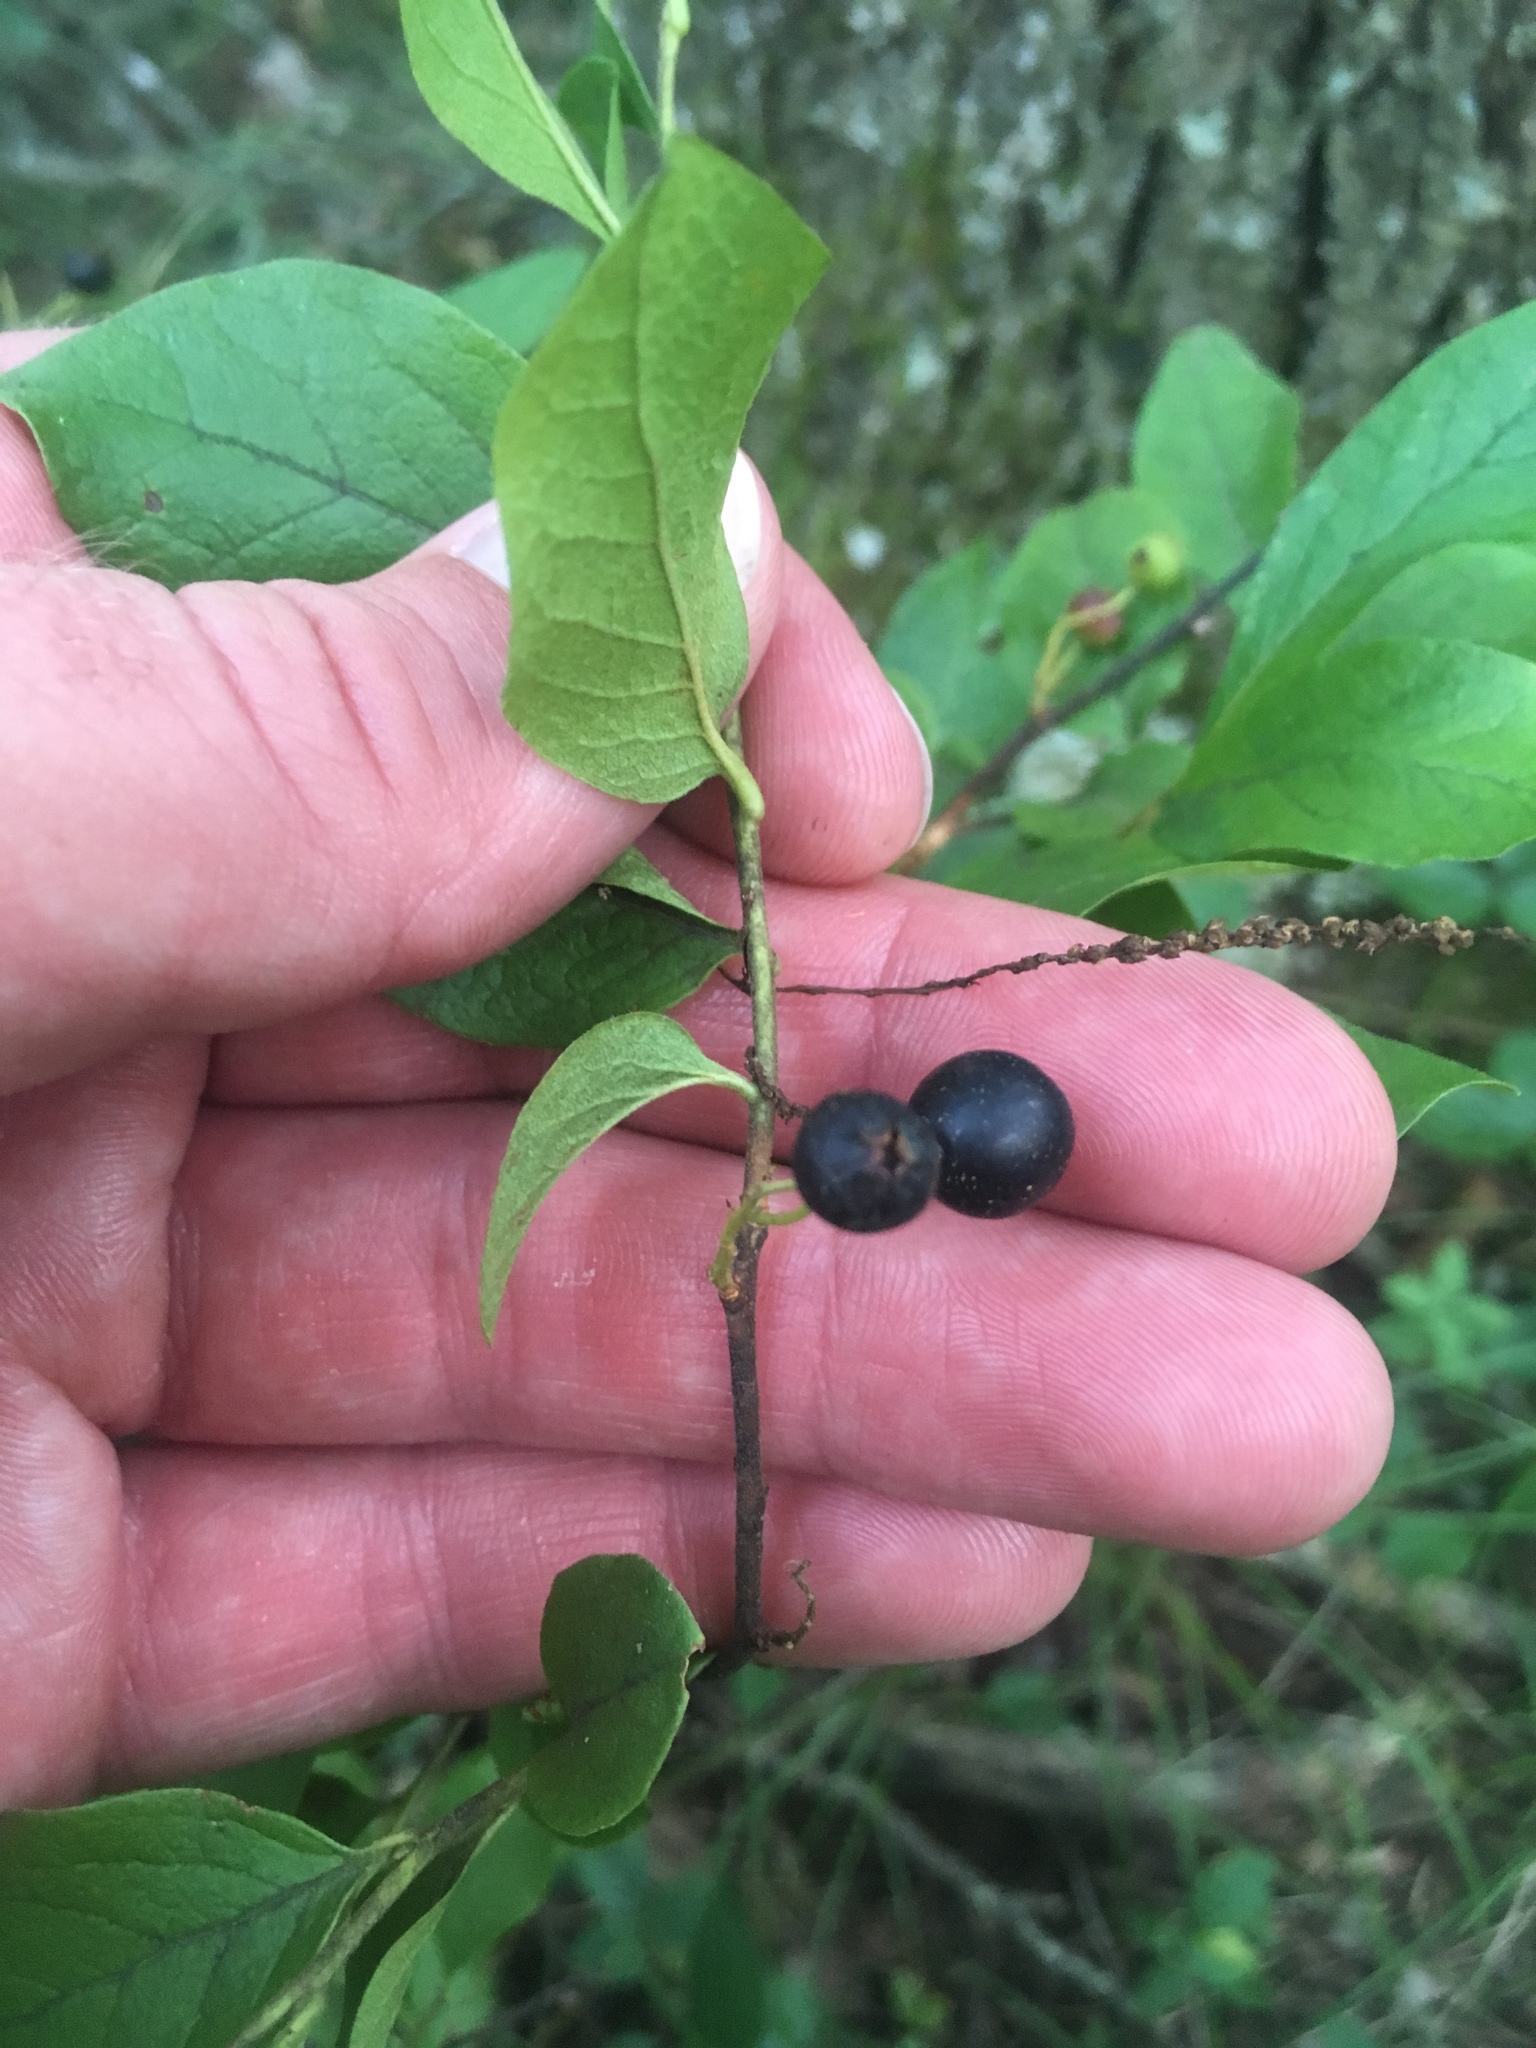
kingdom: Plantae
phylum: Tracheophyta
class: Magnoliopsida
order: Ericales
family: Ericaceae
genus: Gaylussacia
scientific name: Gaylussacia baccata
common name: Black huckleberry
